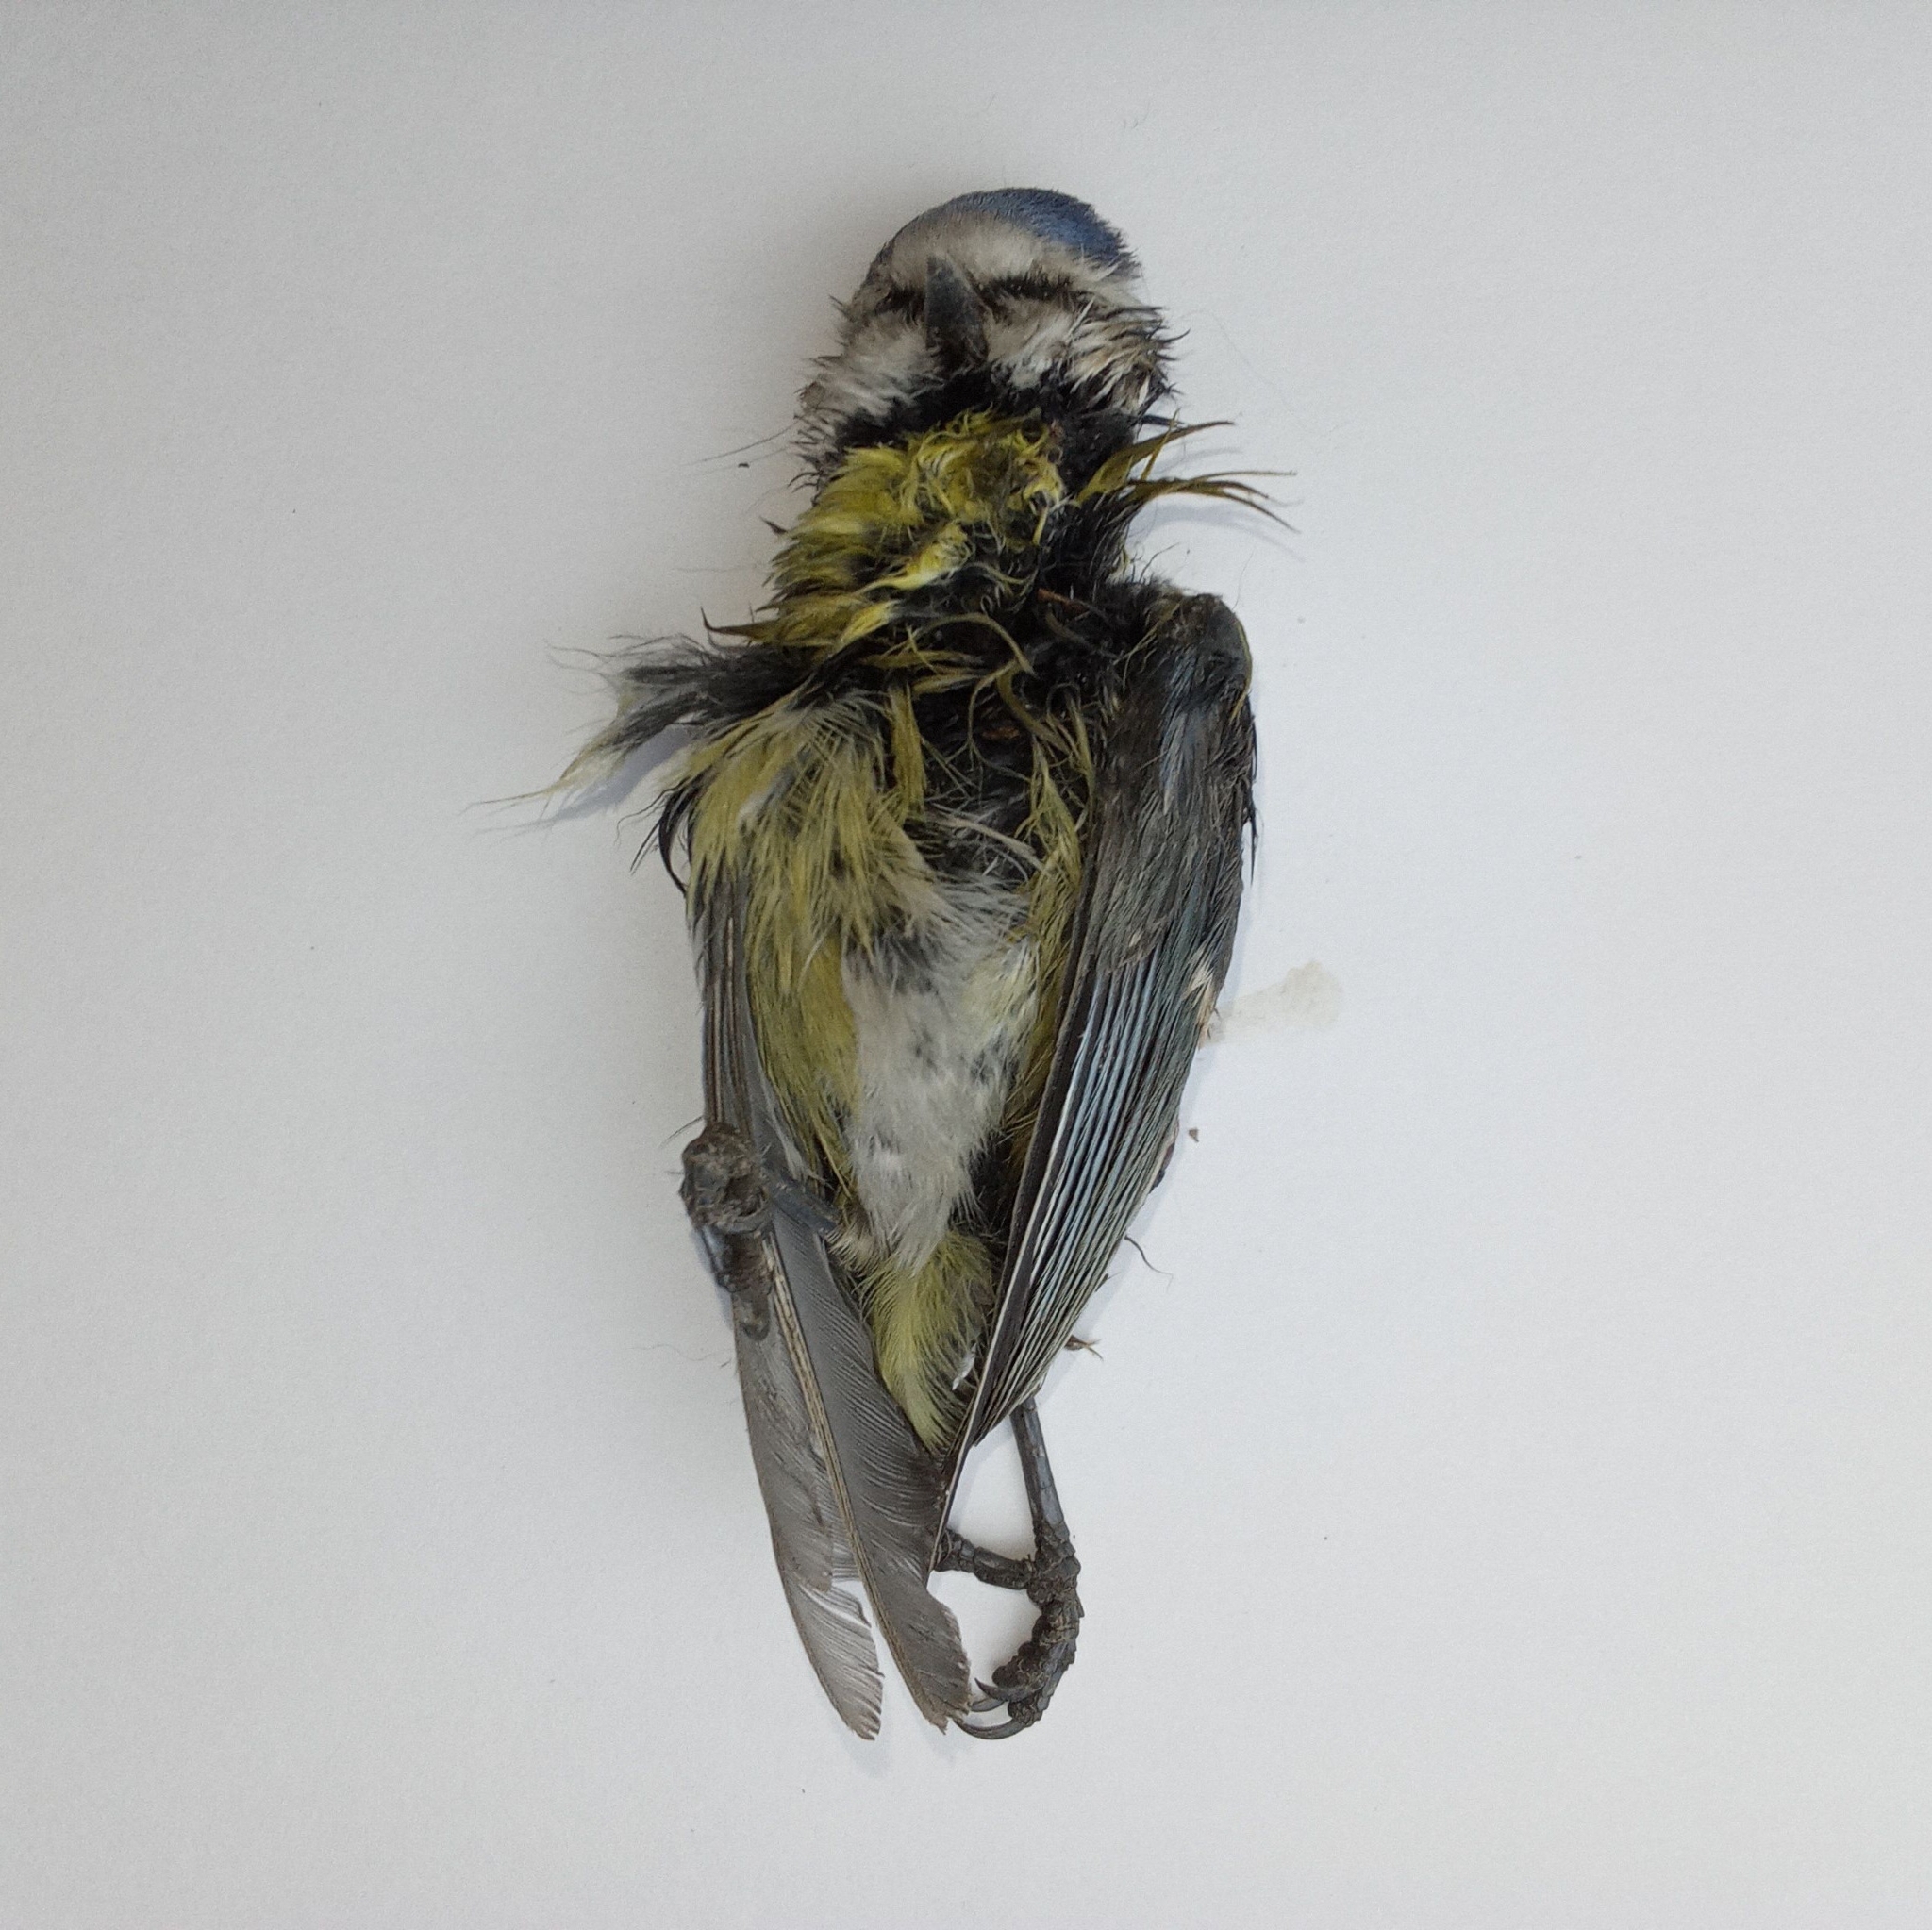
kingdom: Animalia
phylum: Chordata
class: Aves
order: Passeriformes
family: Paridae
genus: Cyanistes
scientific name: Cyanistes caeruleus
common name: Eurasian blue tit
